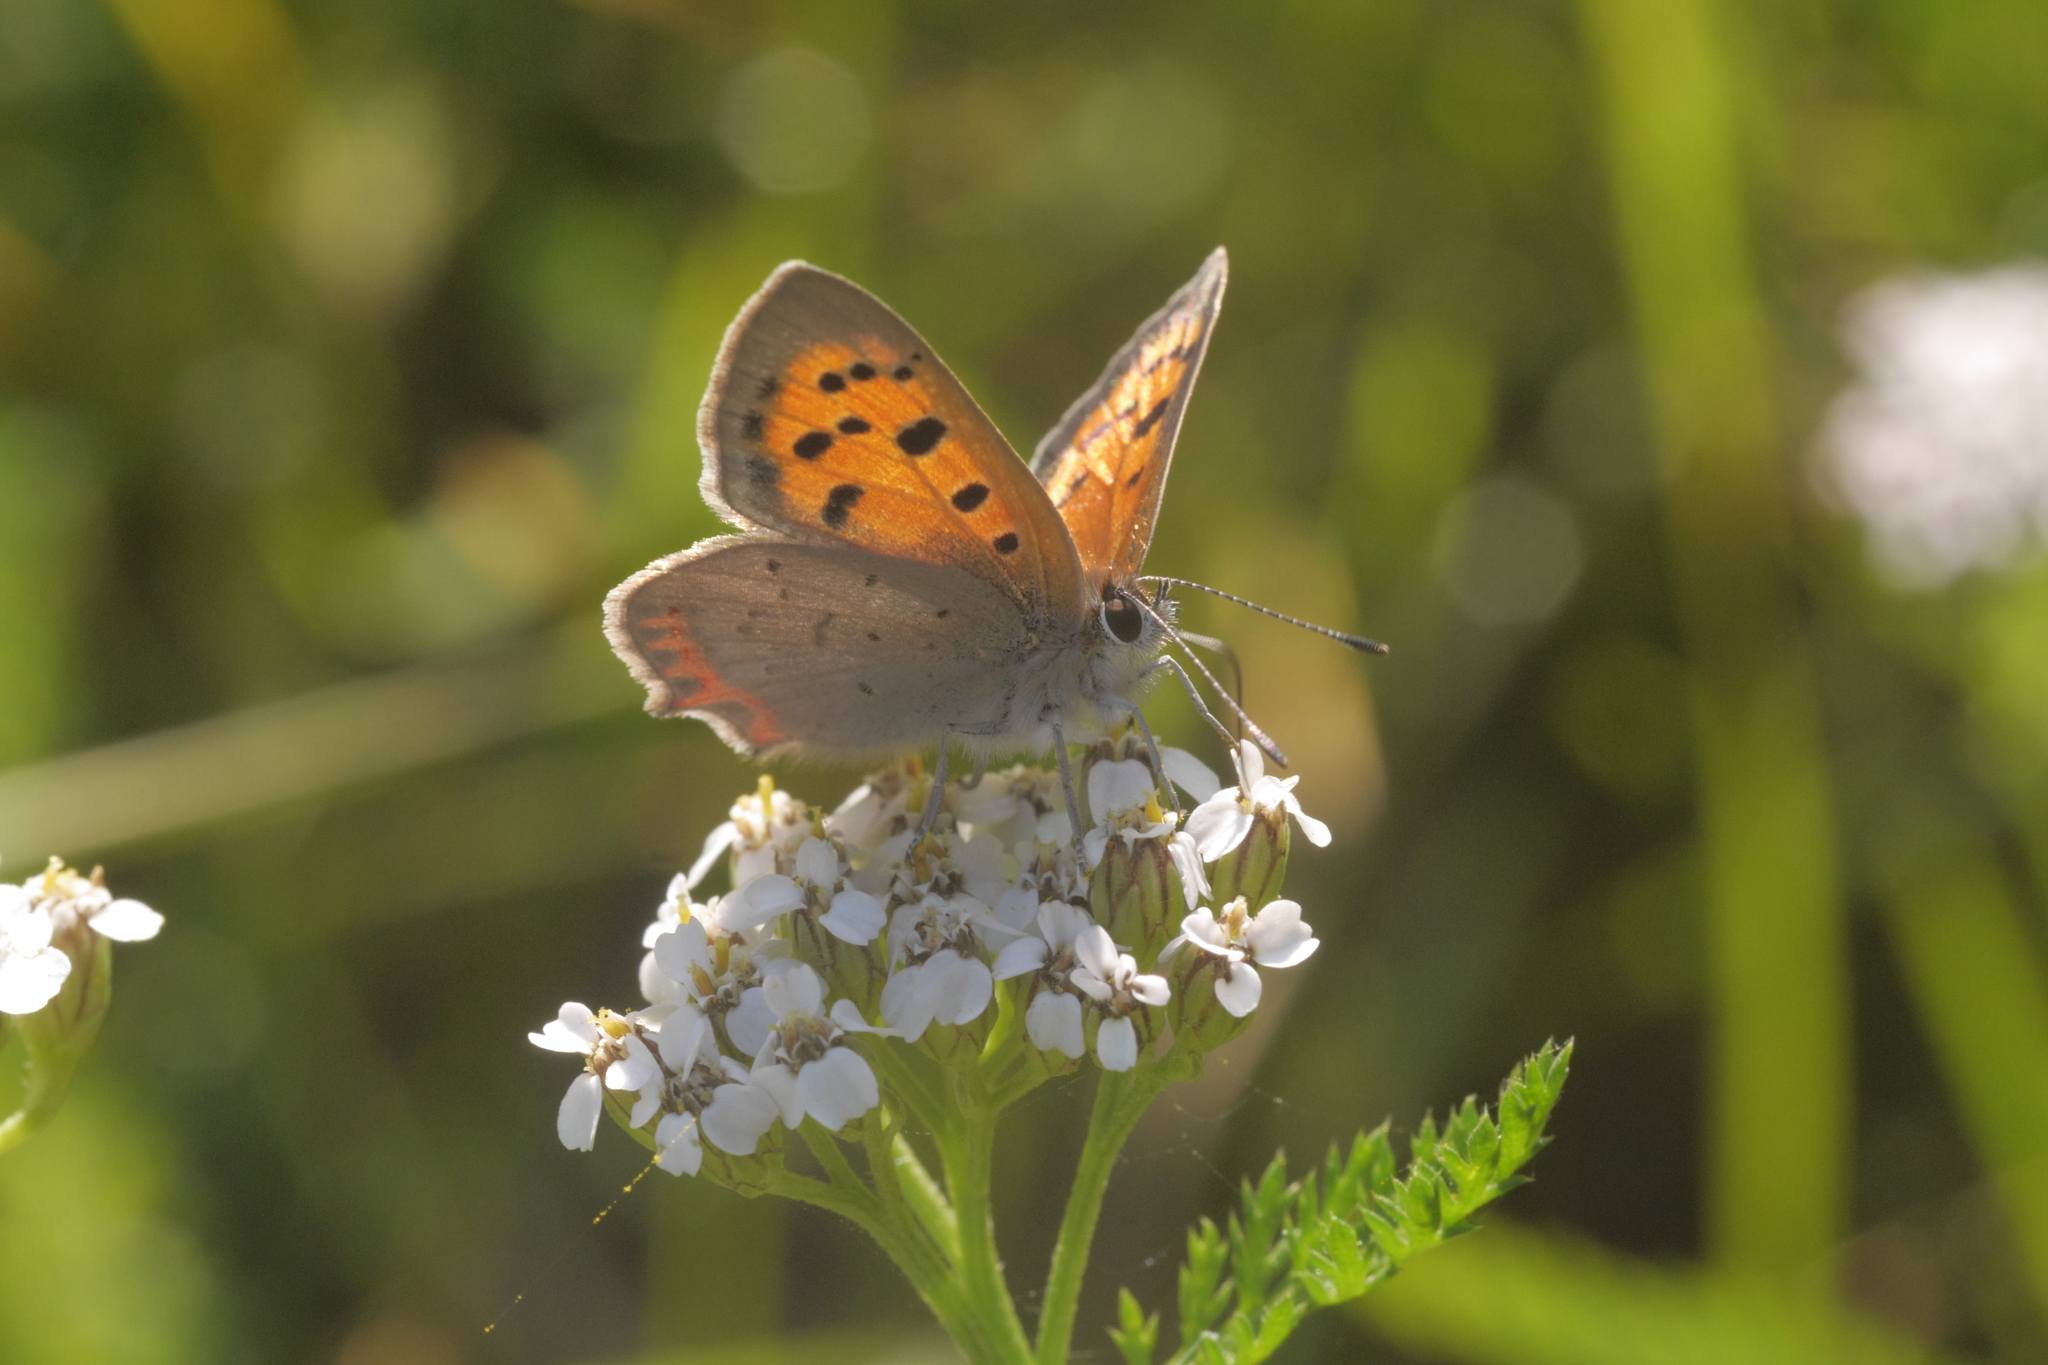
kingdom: Animalia
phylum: Arthropoda
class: Insecta
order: Lepidoptera
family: Lycaenidae
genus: Lycaena
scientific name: Lycaena phlaeas
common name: Small copper
